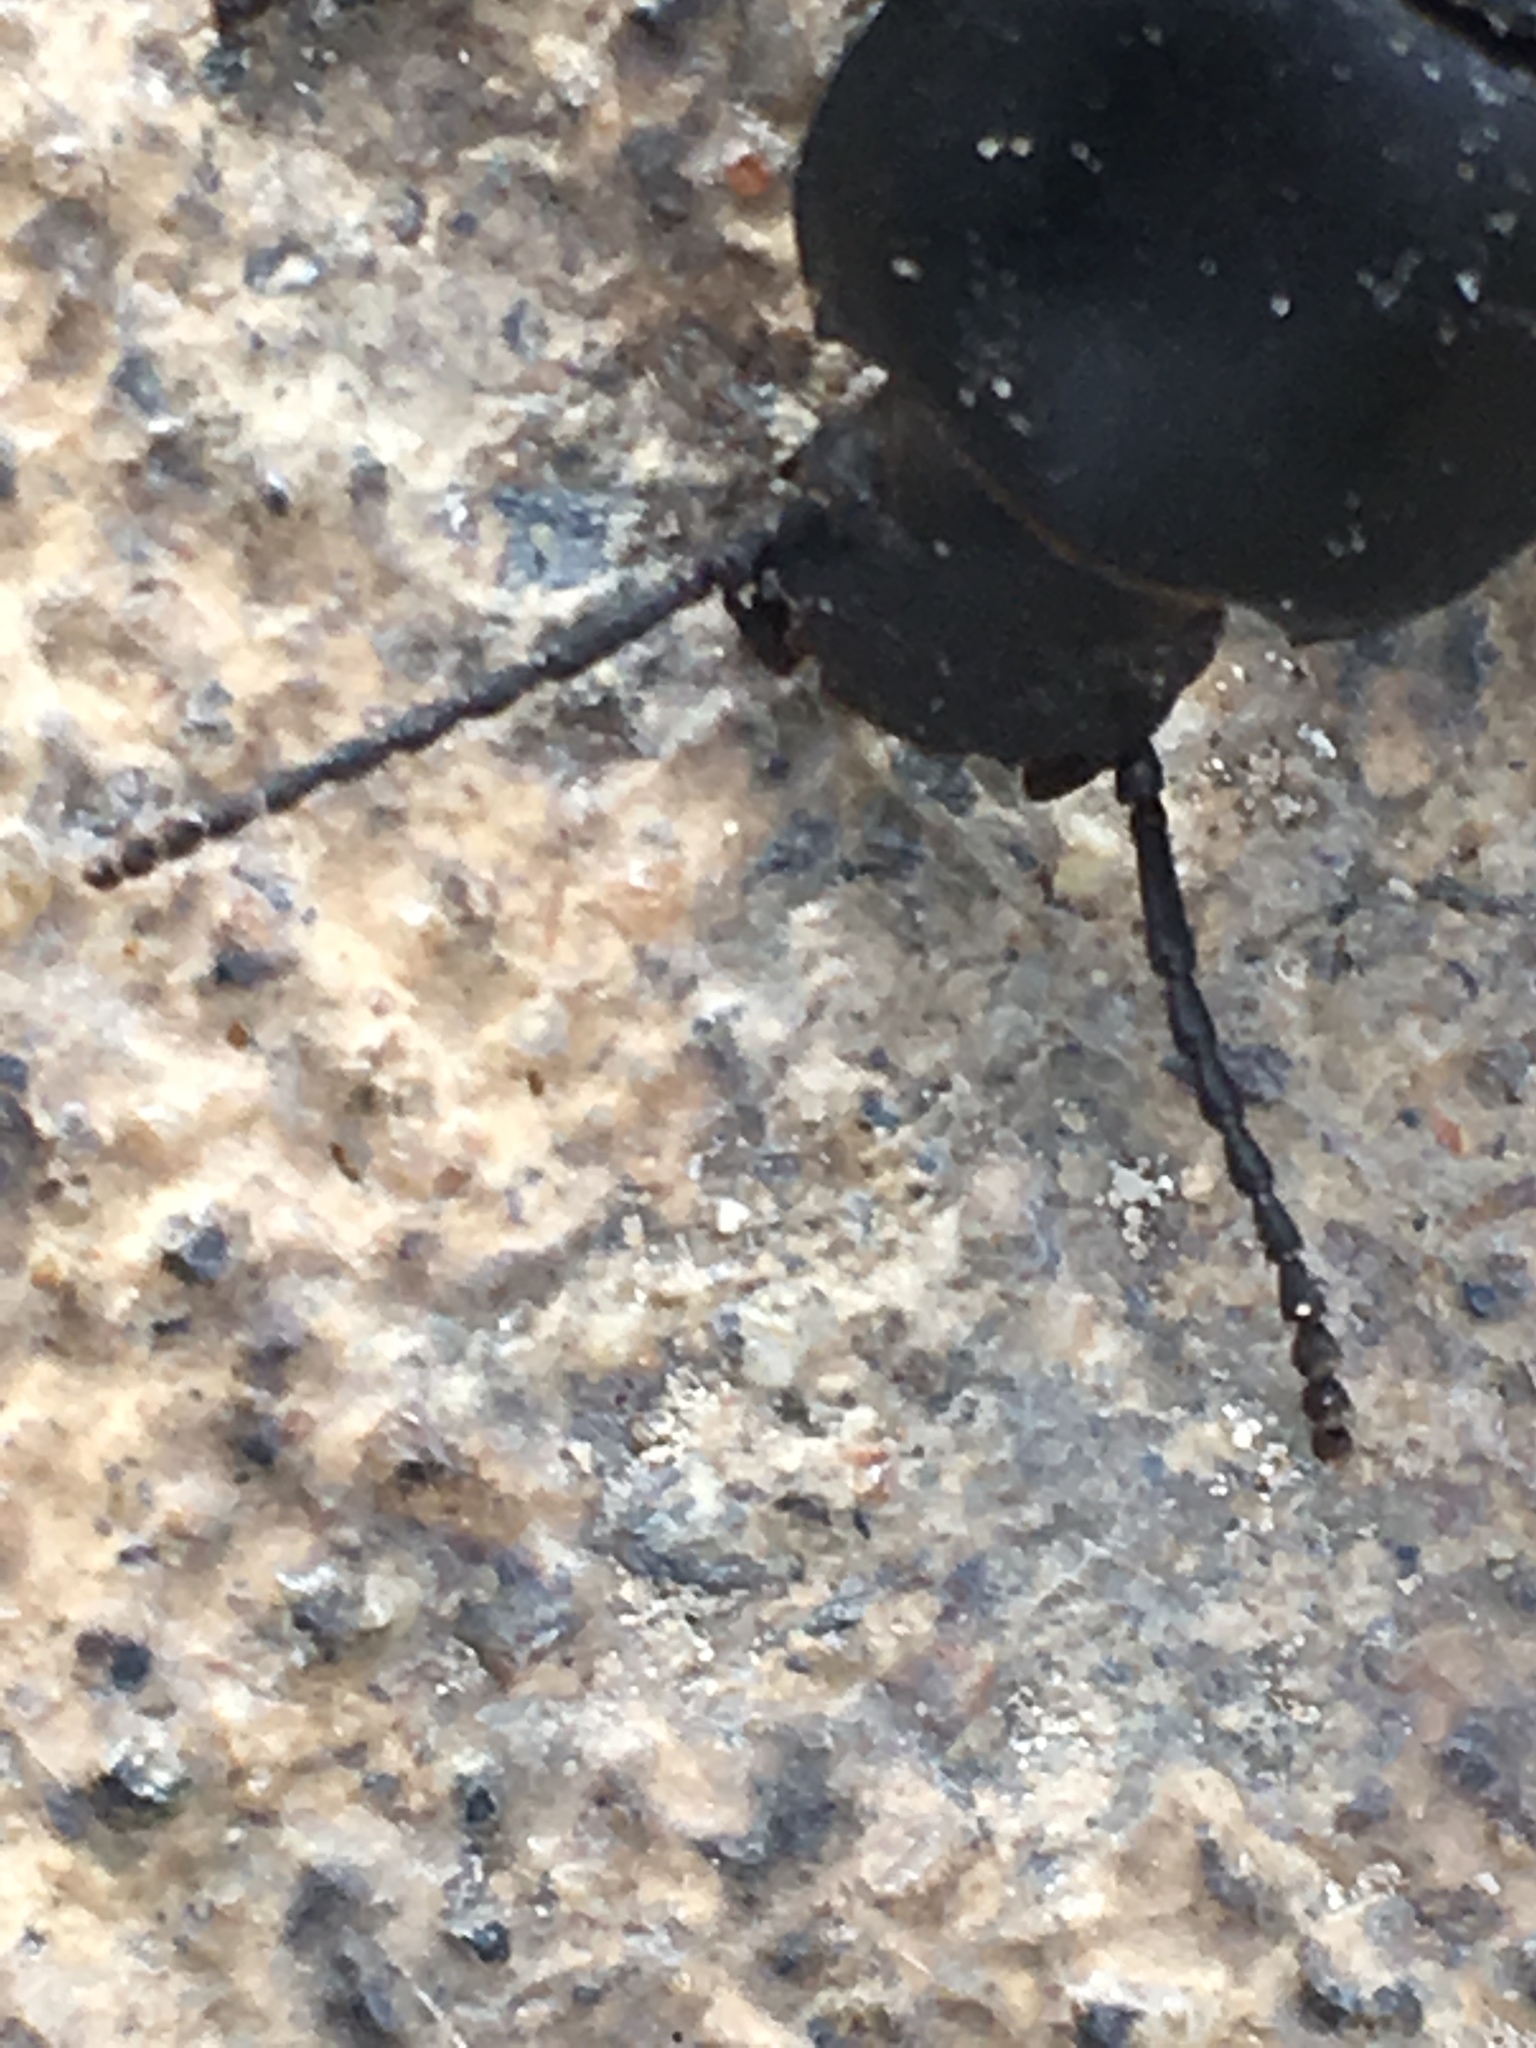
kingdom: Animalia
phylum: Arthropoda
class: Insecta
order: Coleoptera
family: Tenebrionidae
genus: Eleodes
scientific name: Eleodes armata
